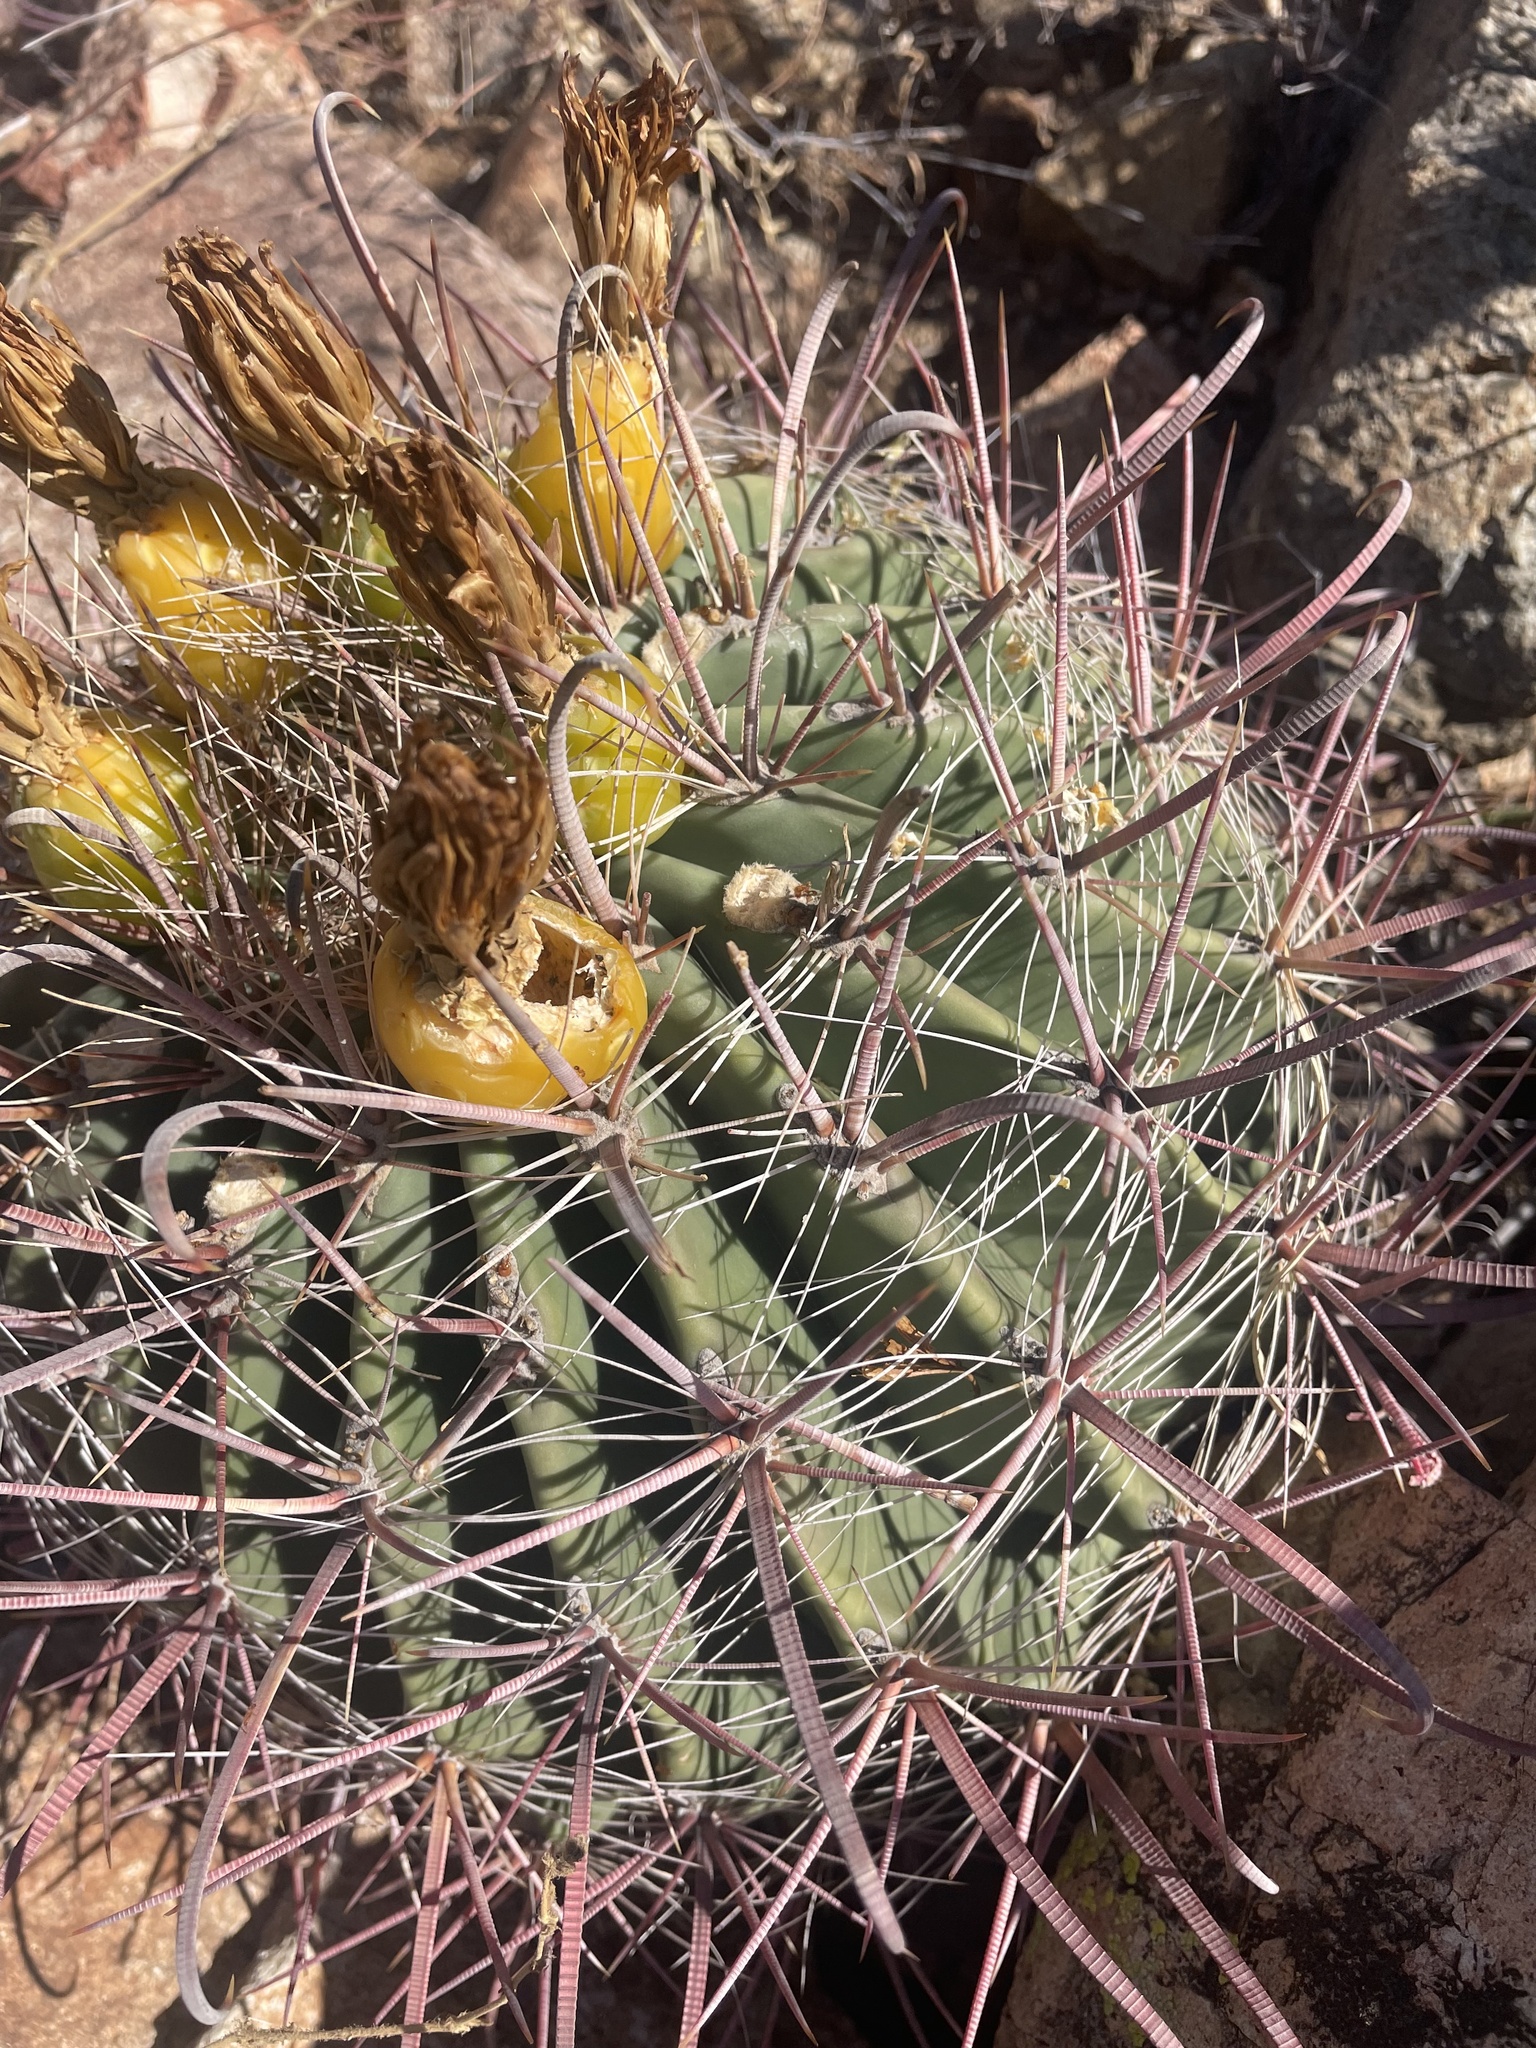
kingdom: Plantae
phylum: Tracheophyta
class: Magnoliopsida
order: Caryophyllales
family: Cactaceae
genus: Ferocactus
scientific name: Ferocactus wislizeni
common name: Candy barrel cactus
